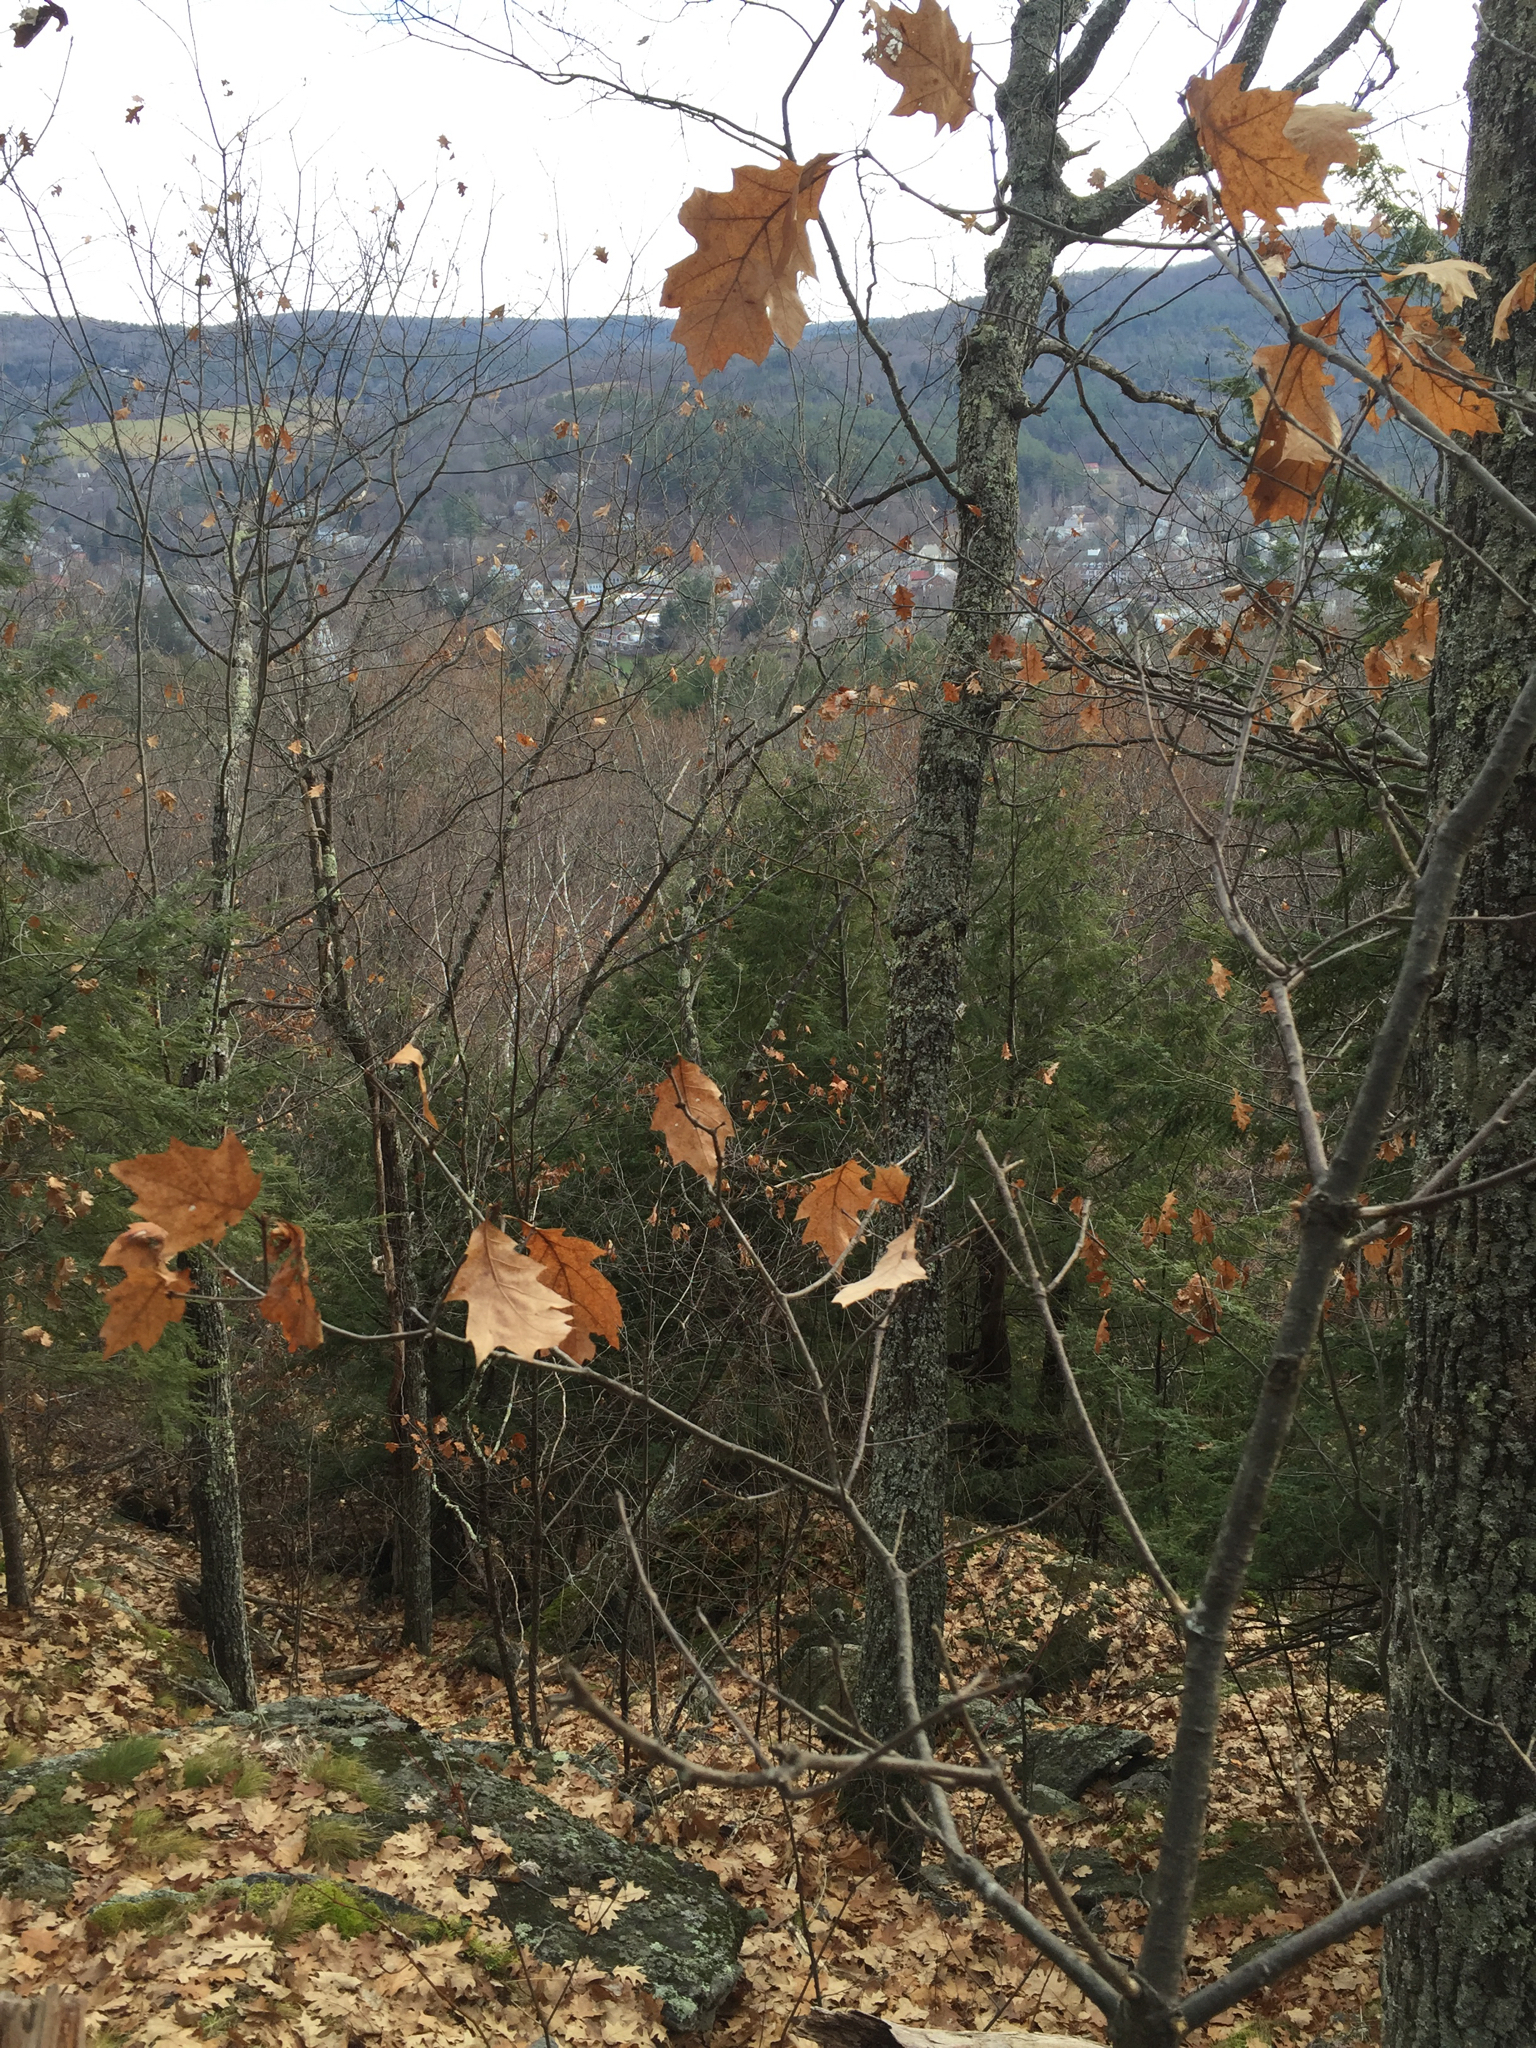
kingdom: Plantae
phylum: Tracheophyta
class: Magnoliopsida
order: Fagales
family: Fagaceae
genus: Quercus
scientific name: Quercus rubra
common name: Red oak
